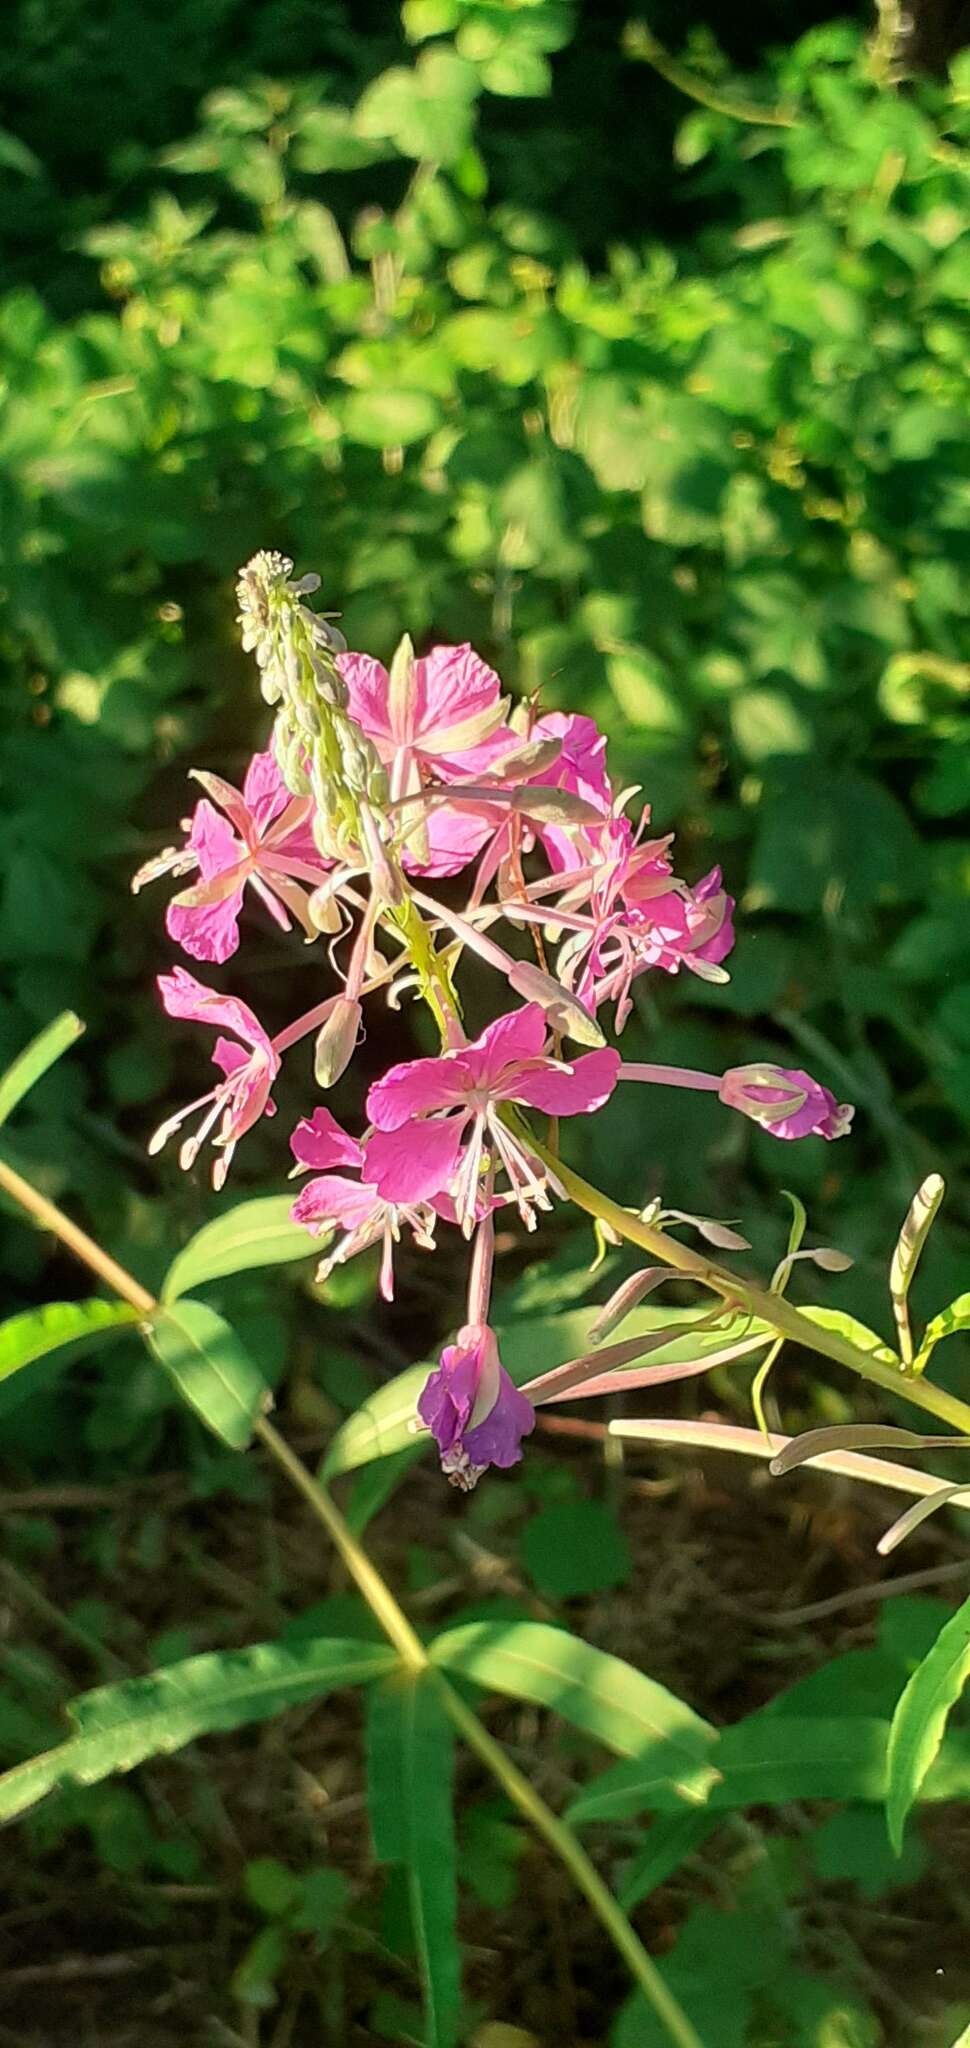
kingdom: Plantae
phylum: Tracheophyta
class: Magnoliopsida
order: Myrtales
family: Onagraceae
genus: Chamaenerion
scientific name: Chamaenerion angustifolium
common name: Fireweed
